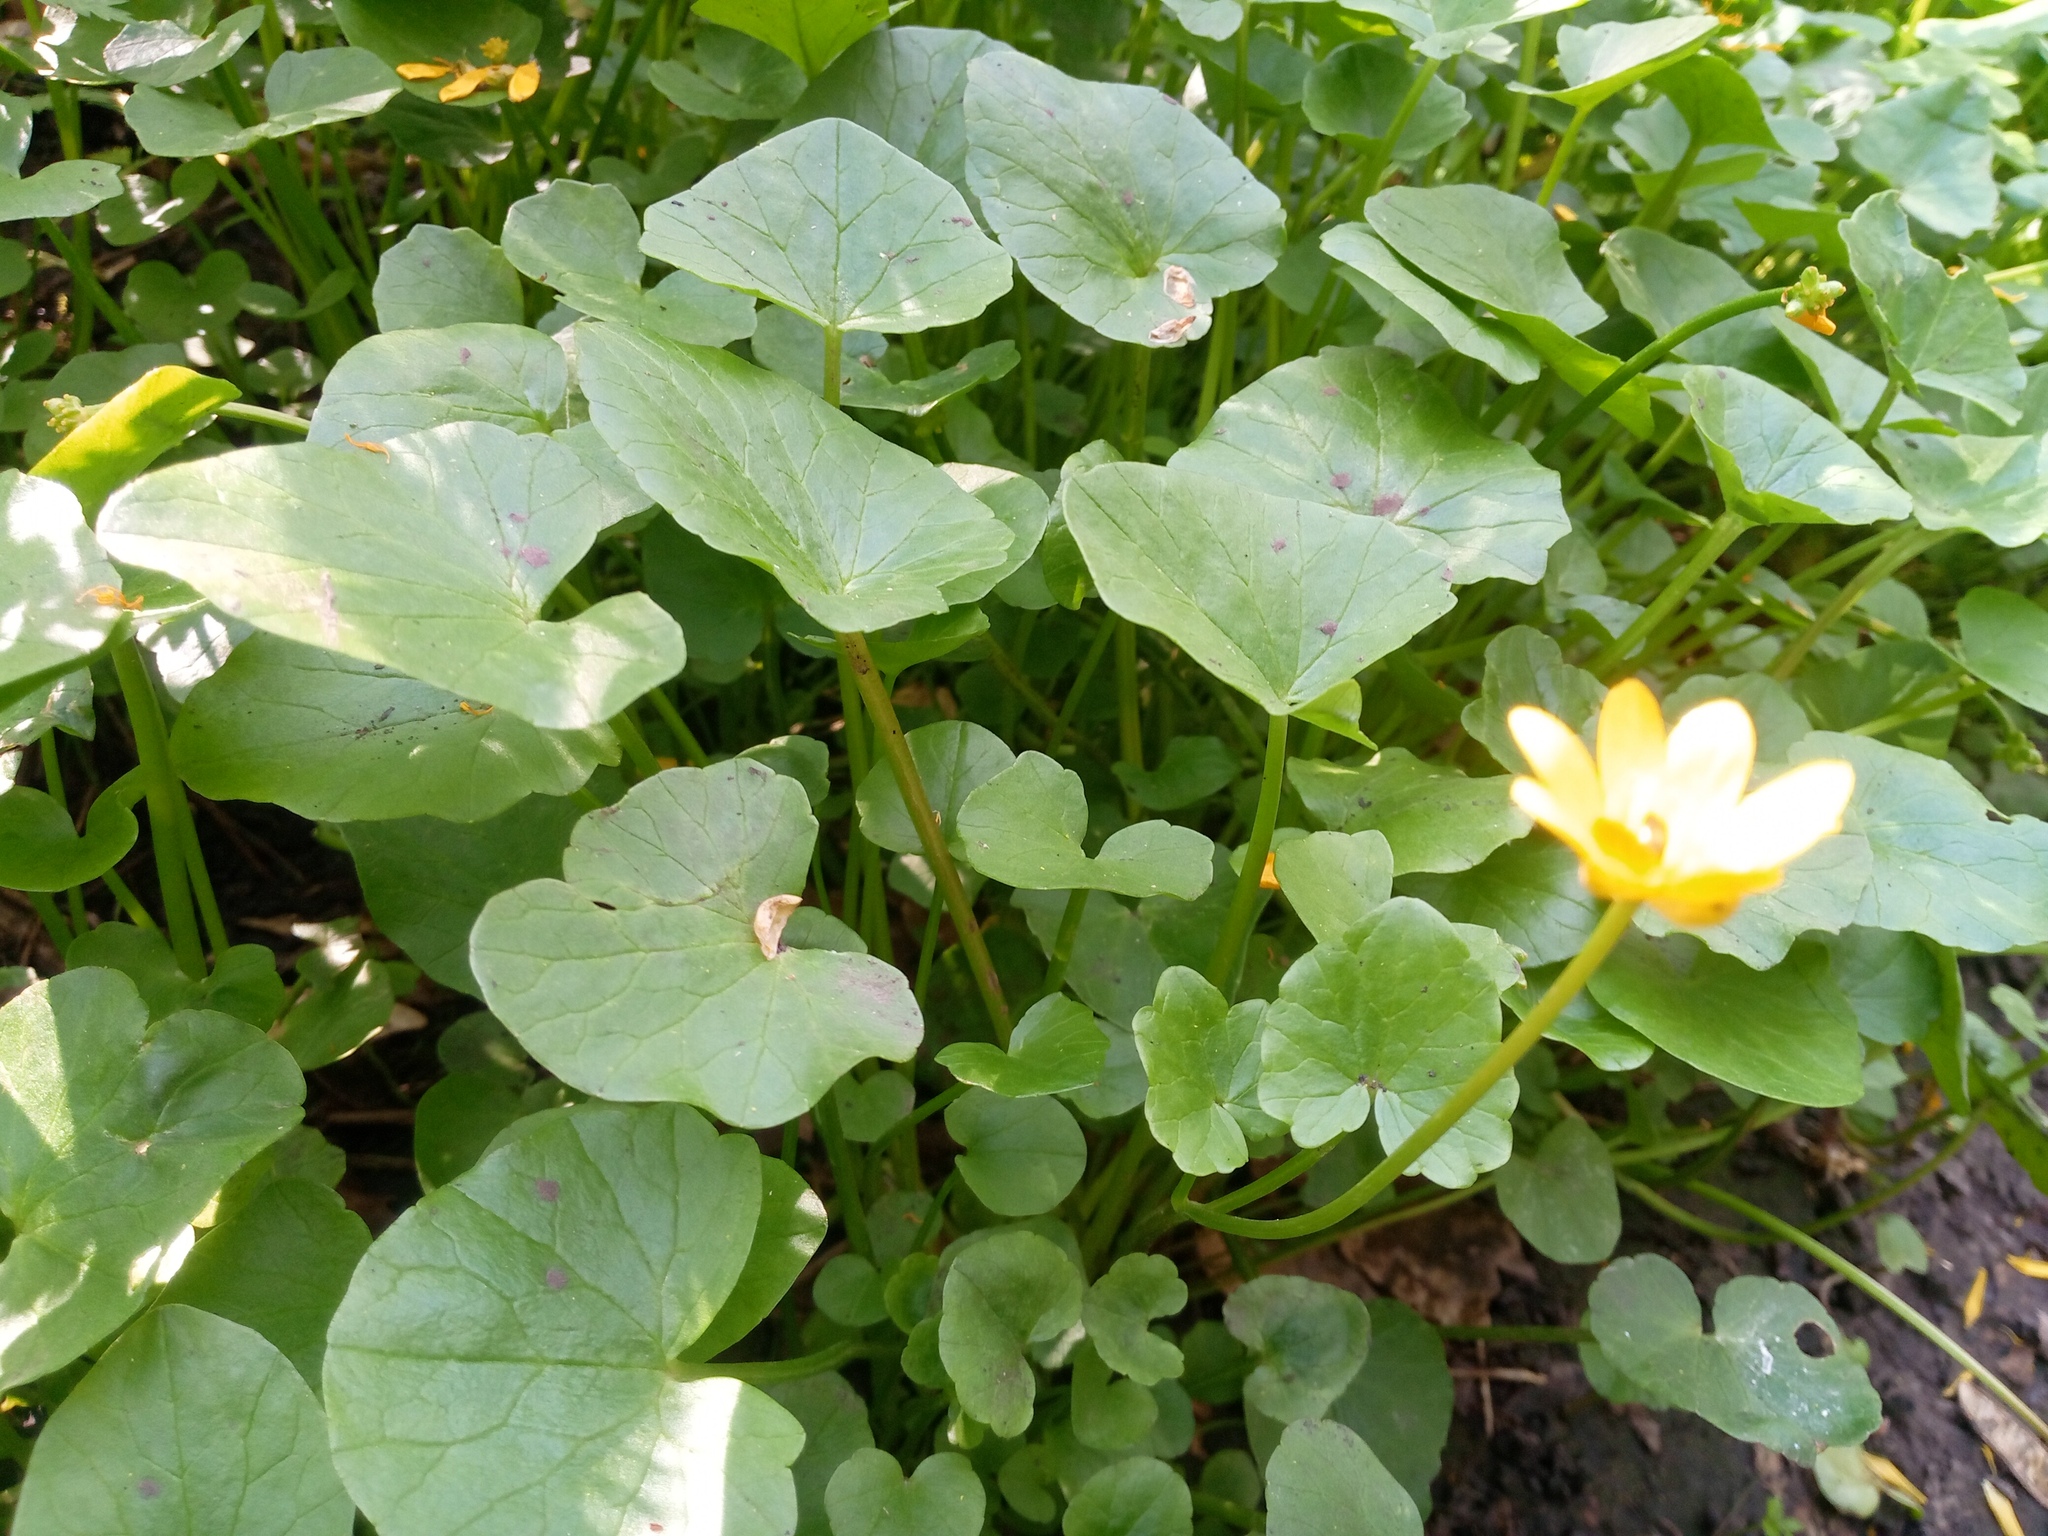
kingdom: Plantae
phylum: Tracheophyta
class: Magnoliopsida
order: Ranunculales
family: Ranunculaceae
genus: Ficaria
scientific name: Ficaria verna
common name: Lesser celandine
